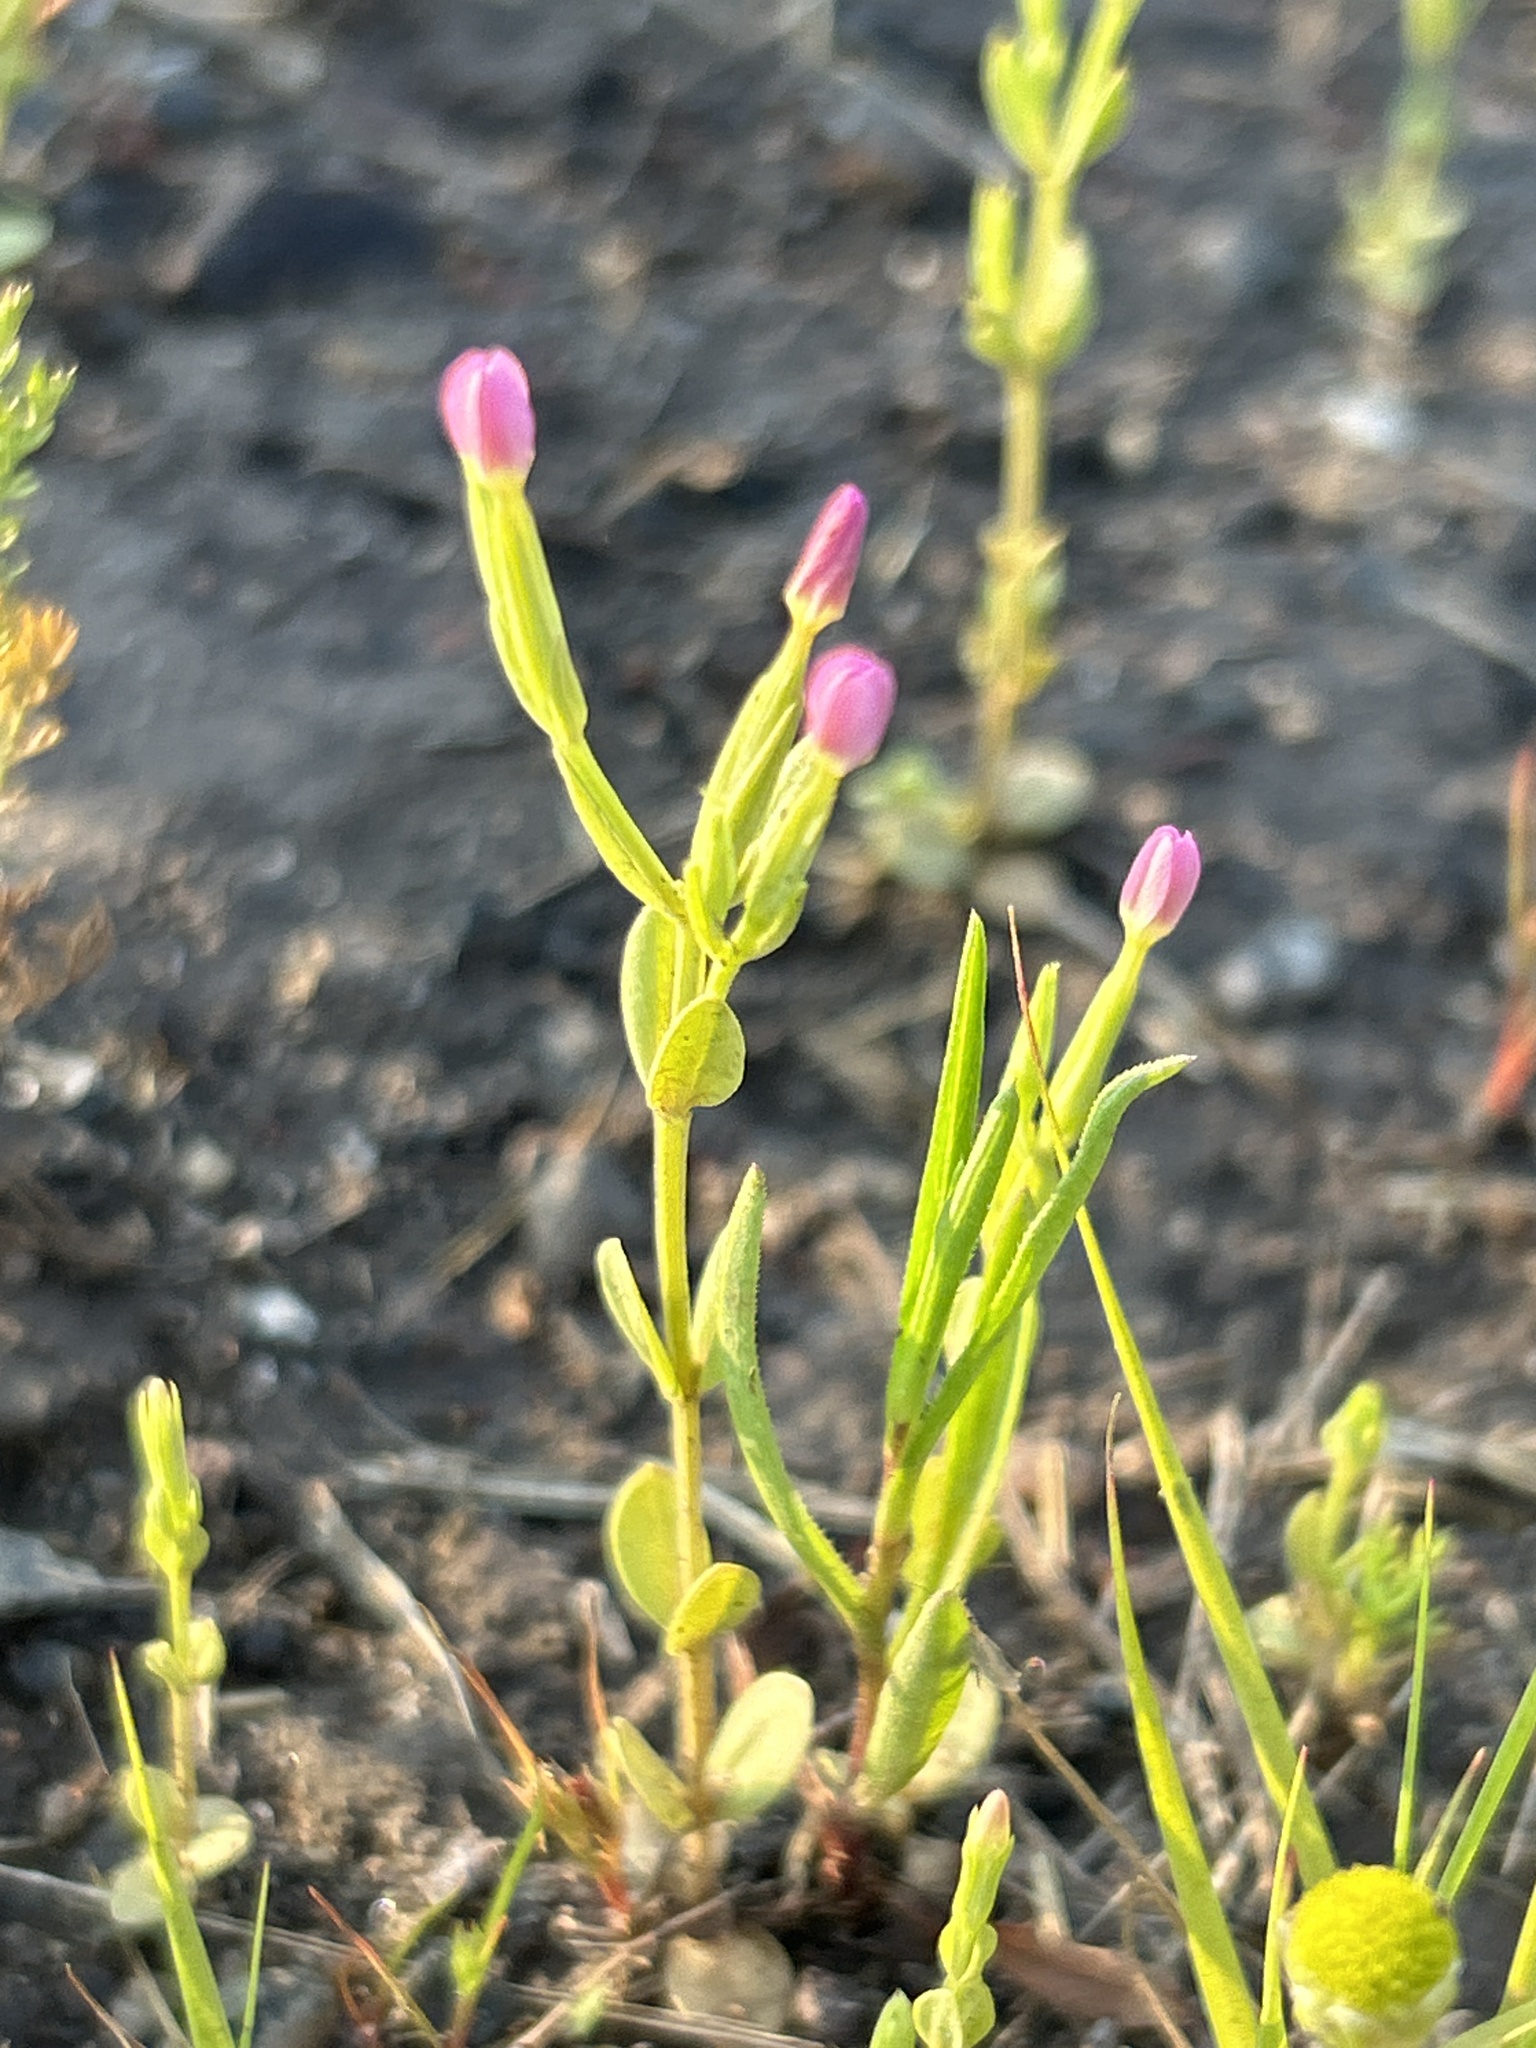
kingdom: Plantae
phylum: Tracheophyta
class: Magnoliopsida
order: Gentianales
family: Gentianaceae
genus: Centaurium
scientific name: Centaurium pulchellum
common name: Lesser centaury
